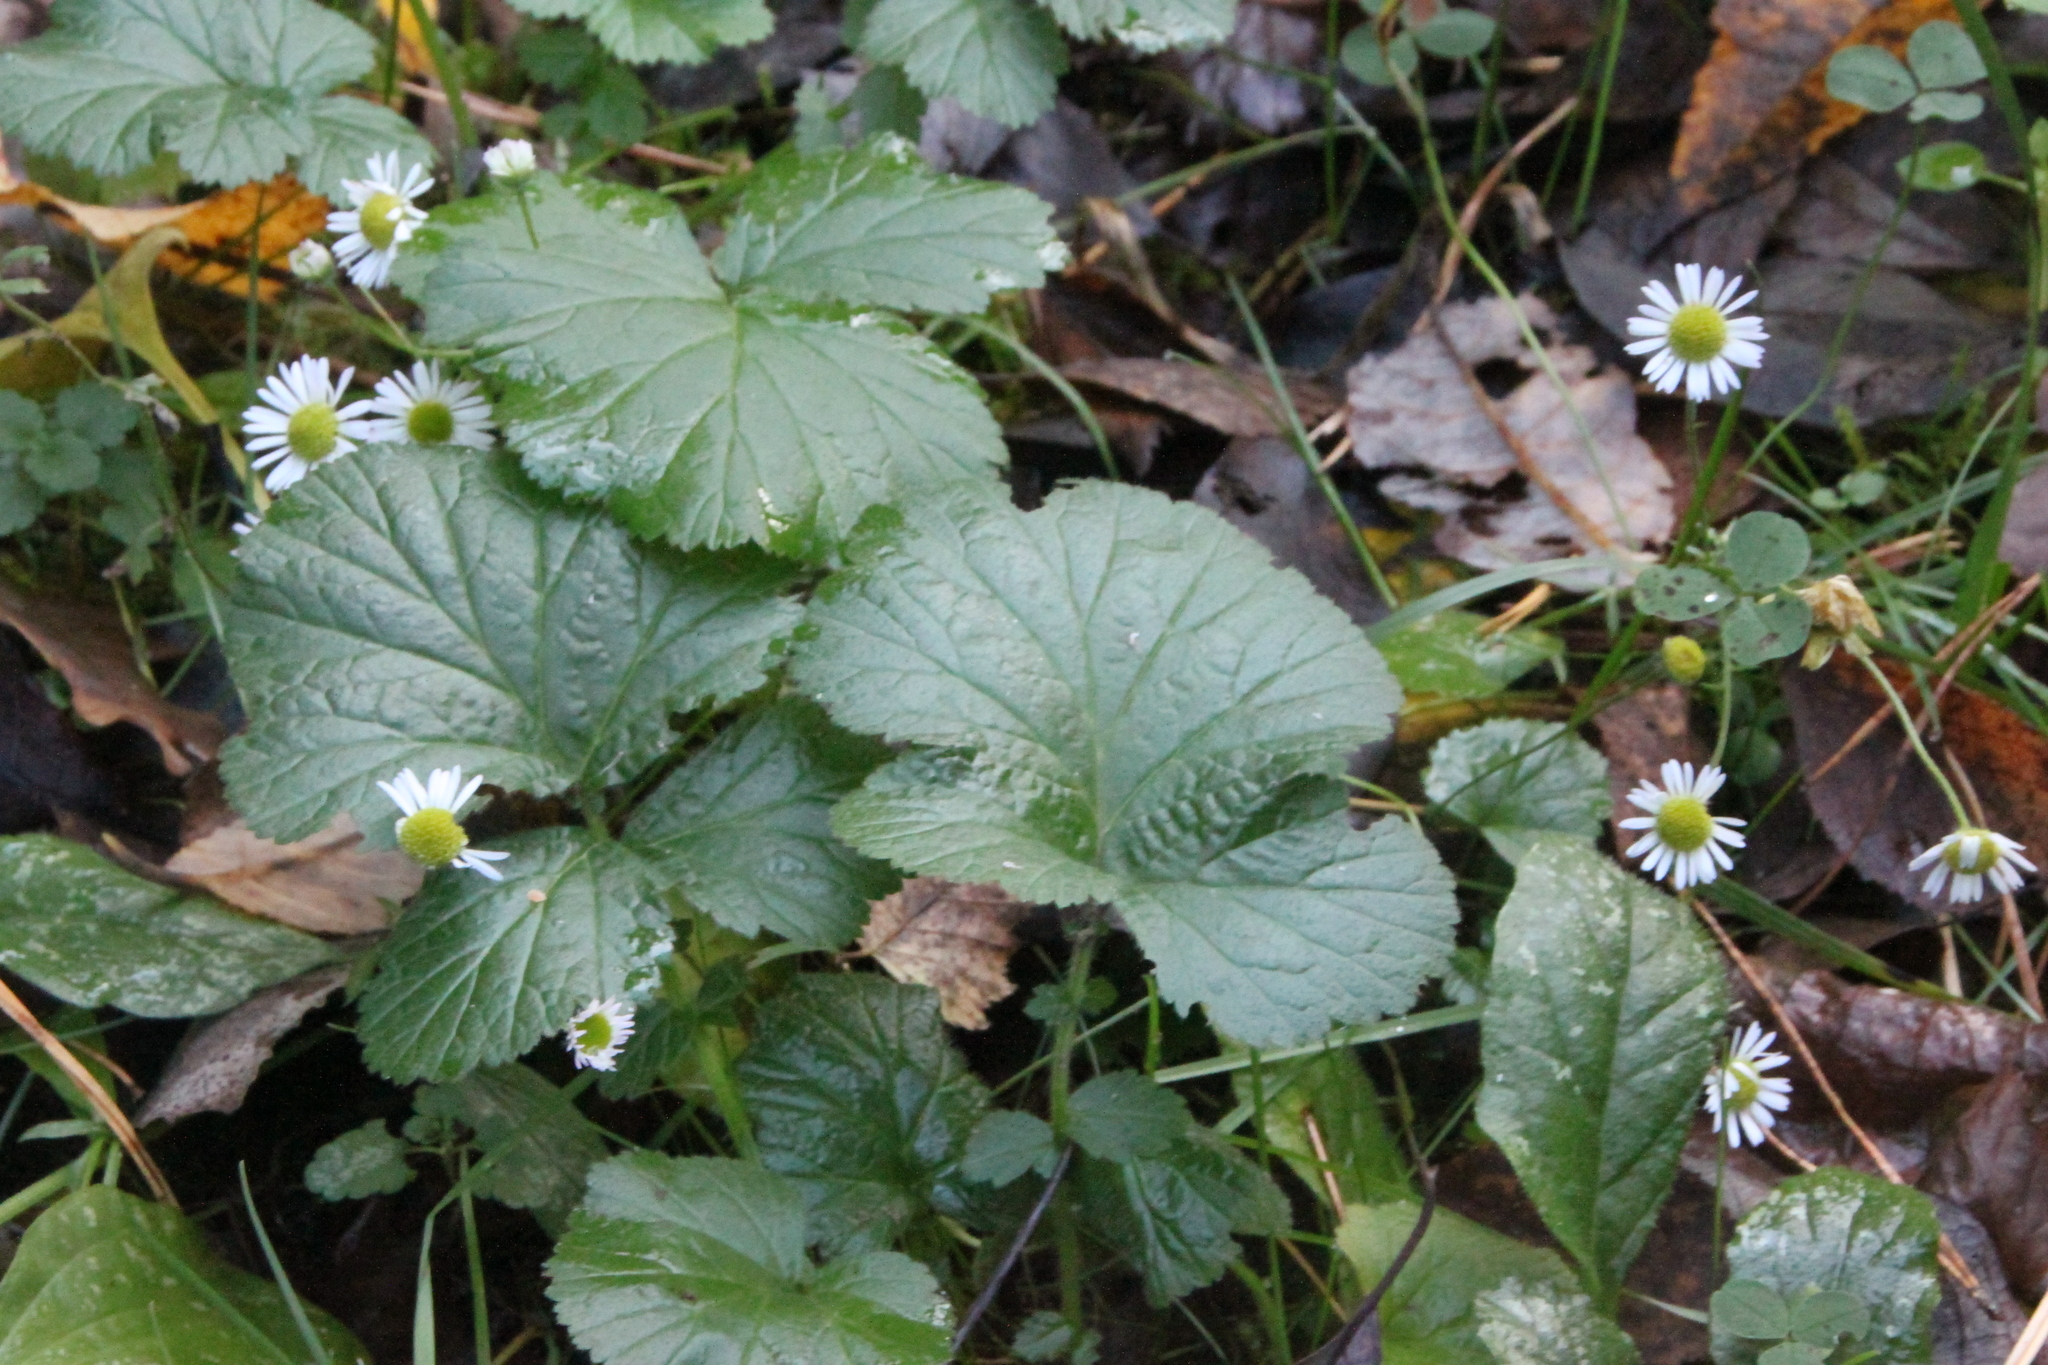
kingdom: Plantae
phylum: Tracheophyta
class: Magnoliopsida
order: Rosales
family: Rosaceae
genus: Geum
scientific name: Geum
